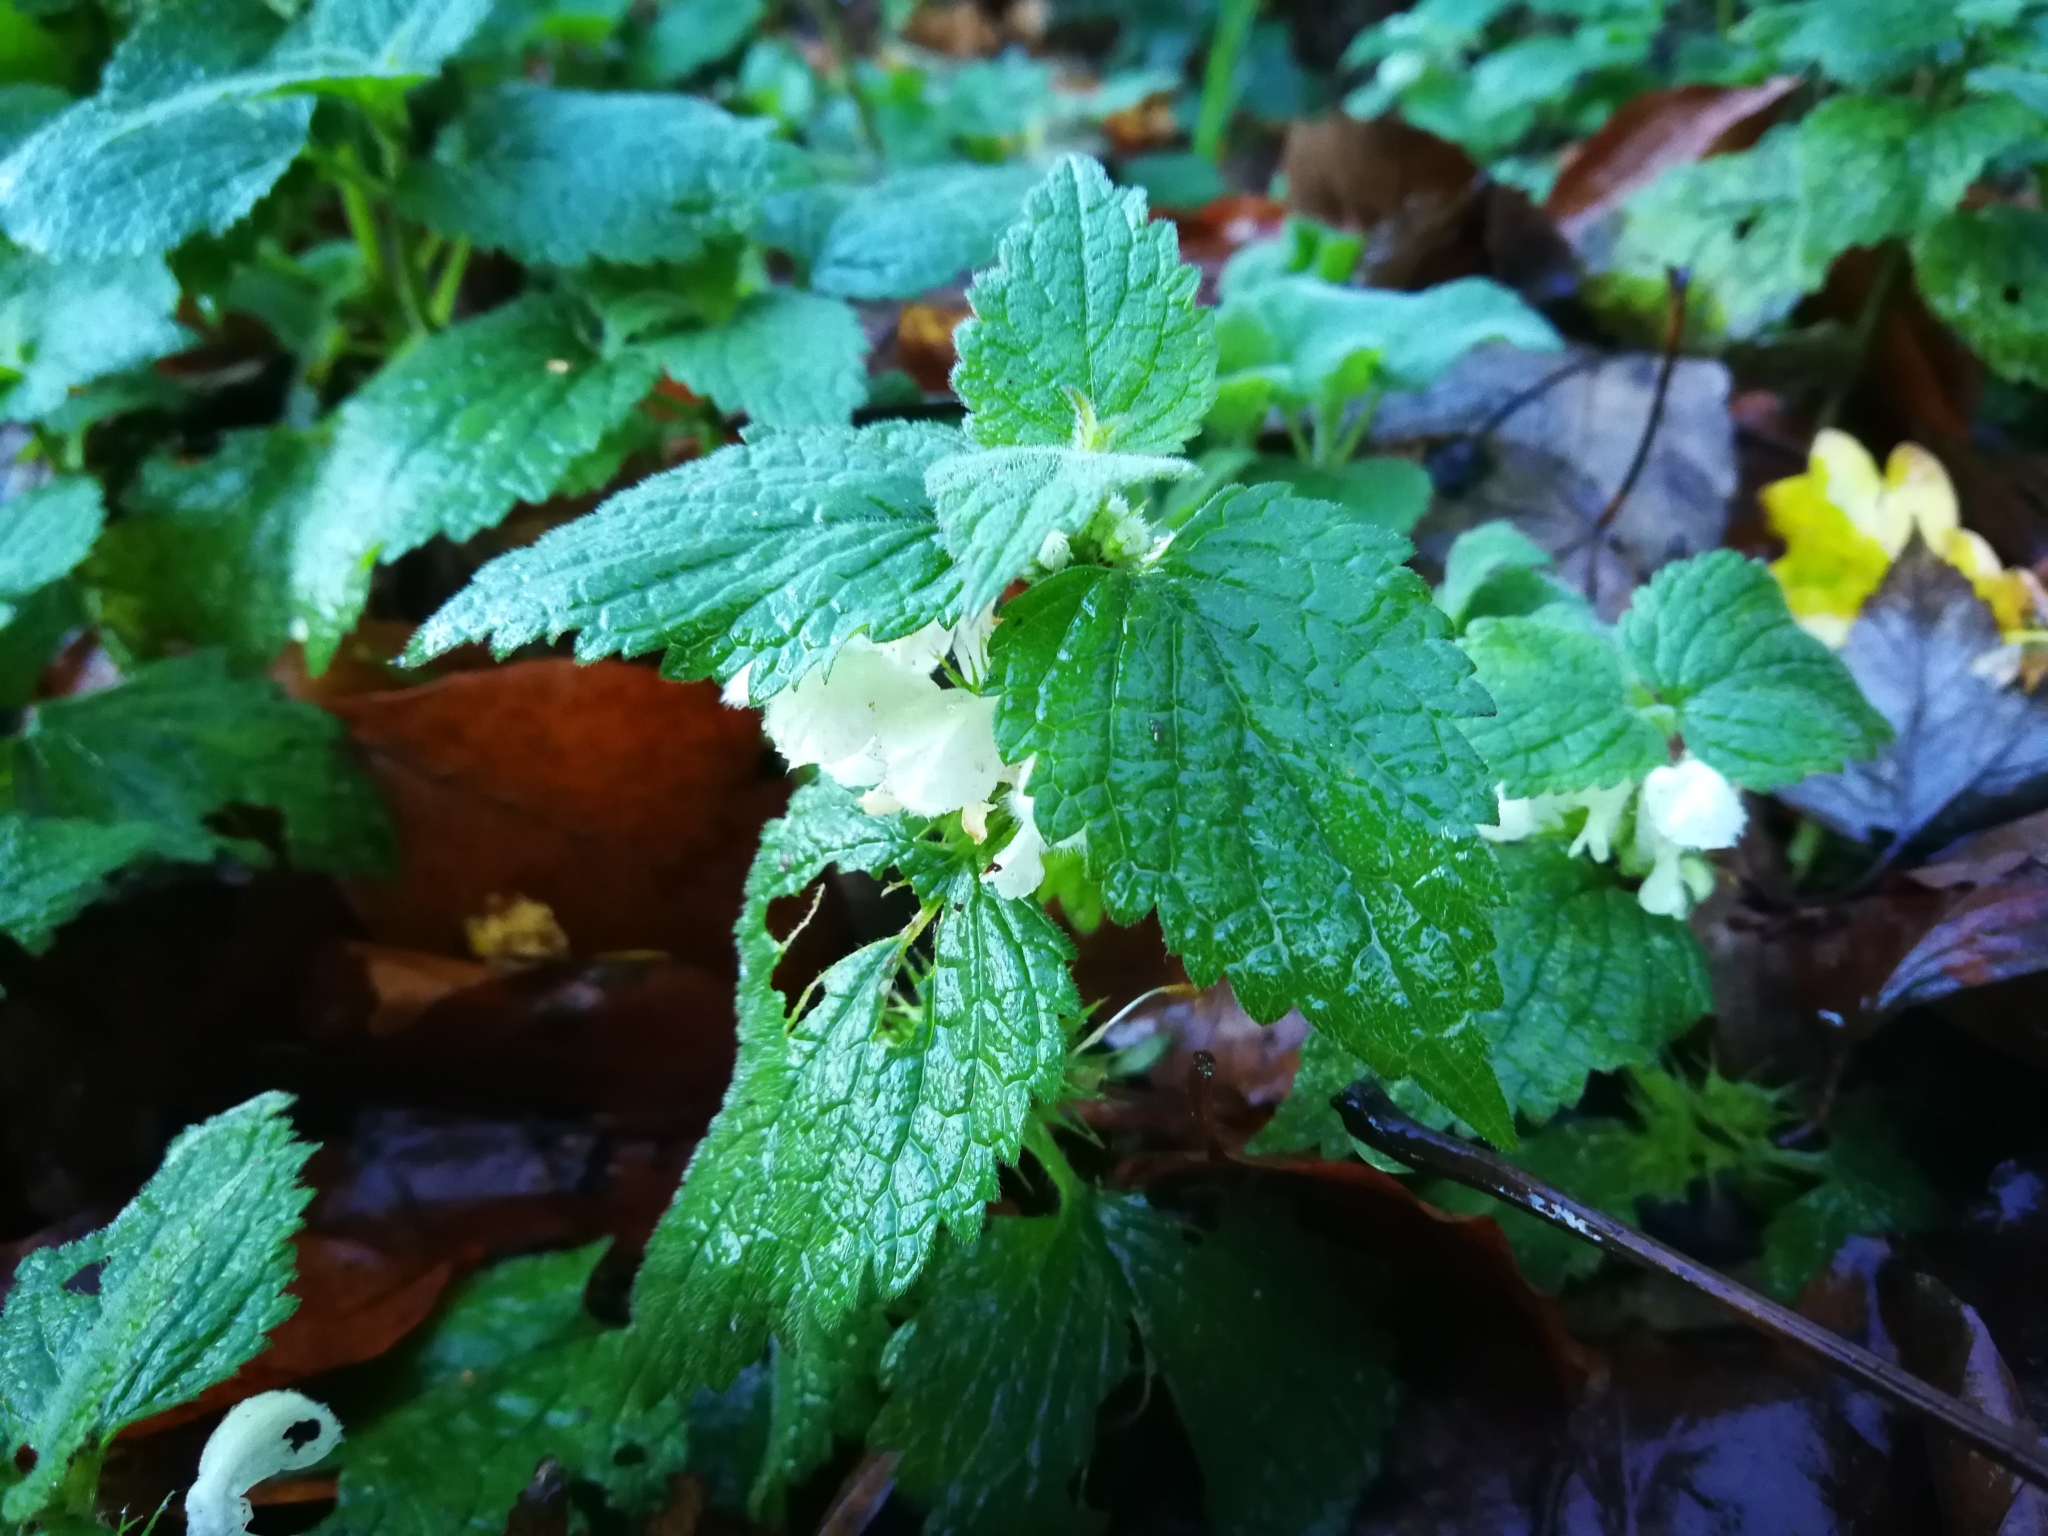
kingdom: Plantae
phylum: Tracheophyta
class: Magnoliopsida
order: Lamiales
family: Lamiaceae
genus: Lamium
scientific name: Lamium album
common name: White dead-nettle
